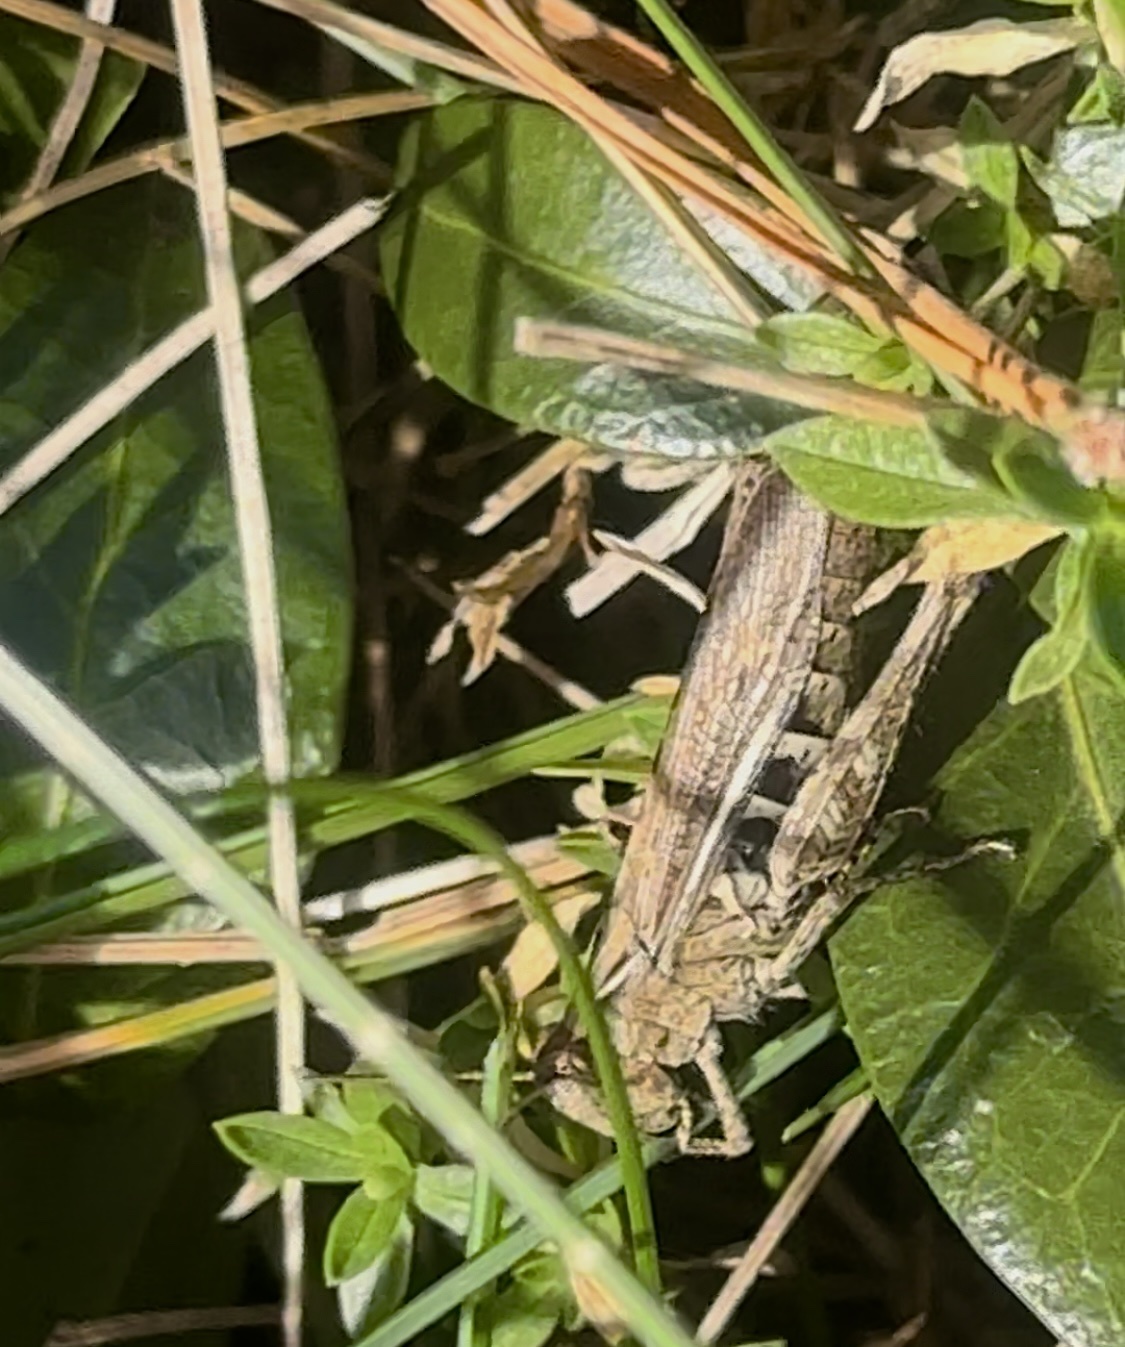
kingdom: Animalia
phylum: Arthropoda
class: Insecta
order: Orthoptera
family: Acrididae
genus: Chorthippus
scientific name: Chorthippus biguttulus
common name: Bow-winged grasshopper
